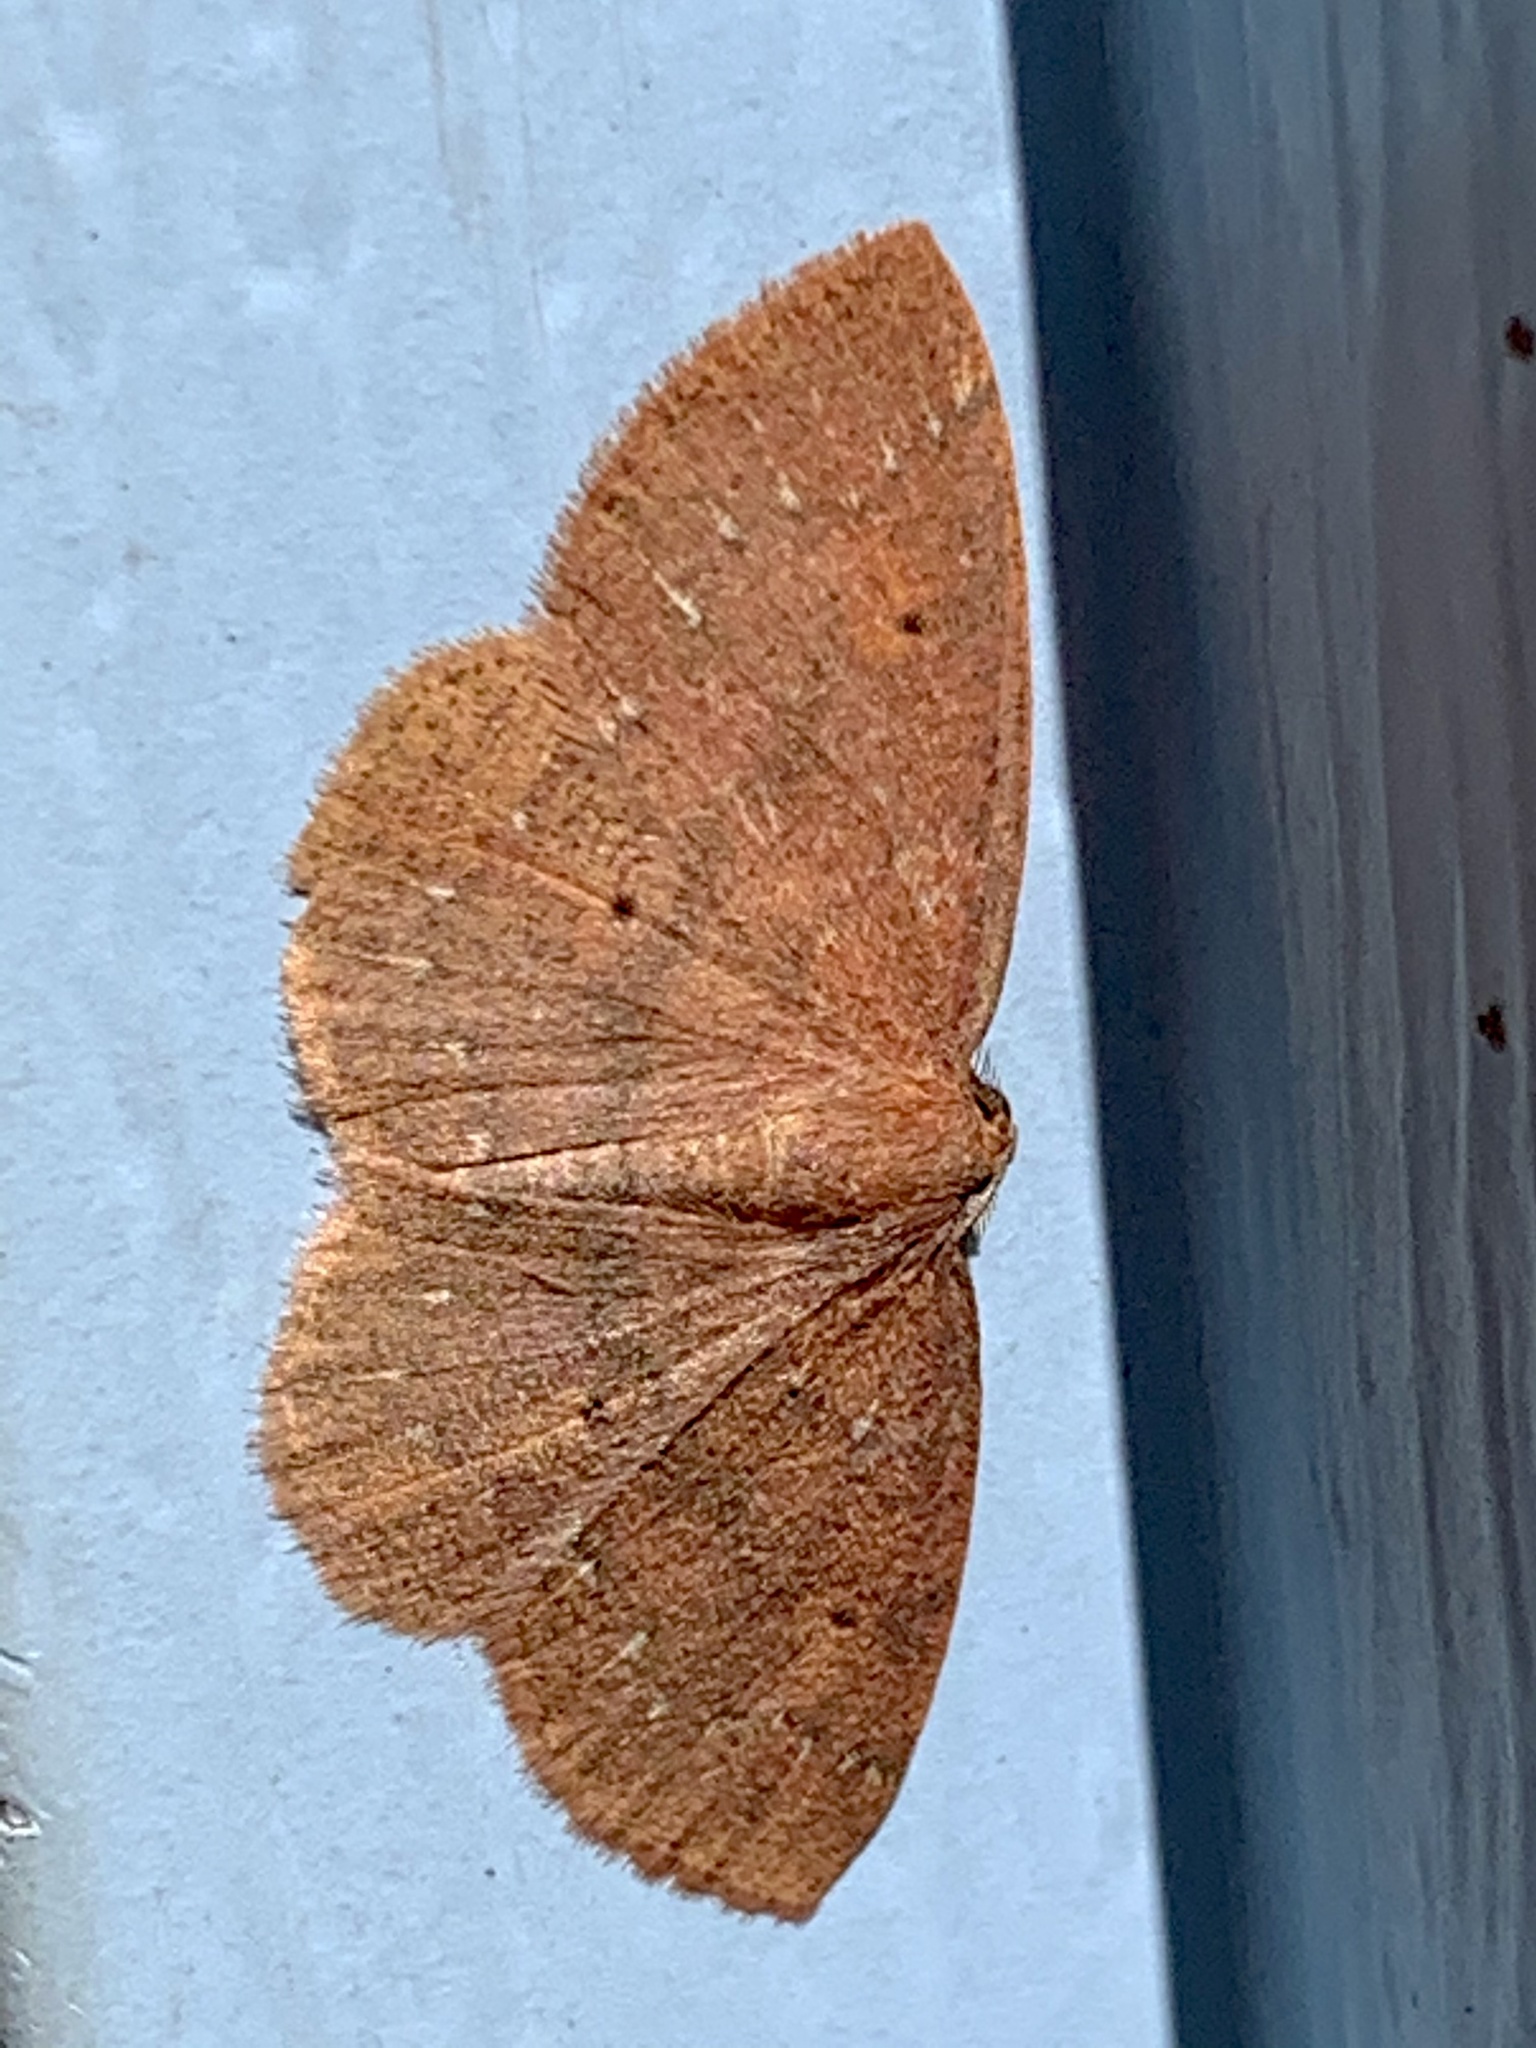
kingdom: Animalia
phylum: Arthropoda
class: Insecta
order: Lepidoptera
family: Geometridae
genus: Ilexia
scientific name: Ilexia intractata
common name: Black-dotted ruddy moth
